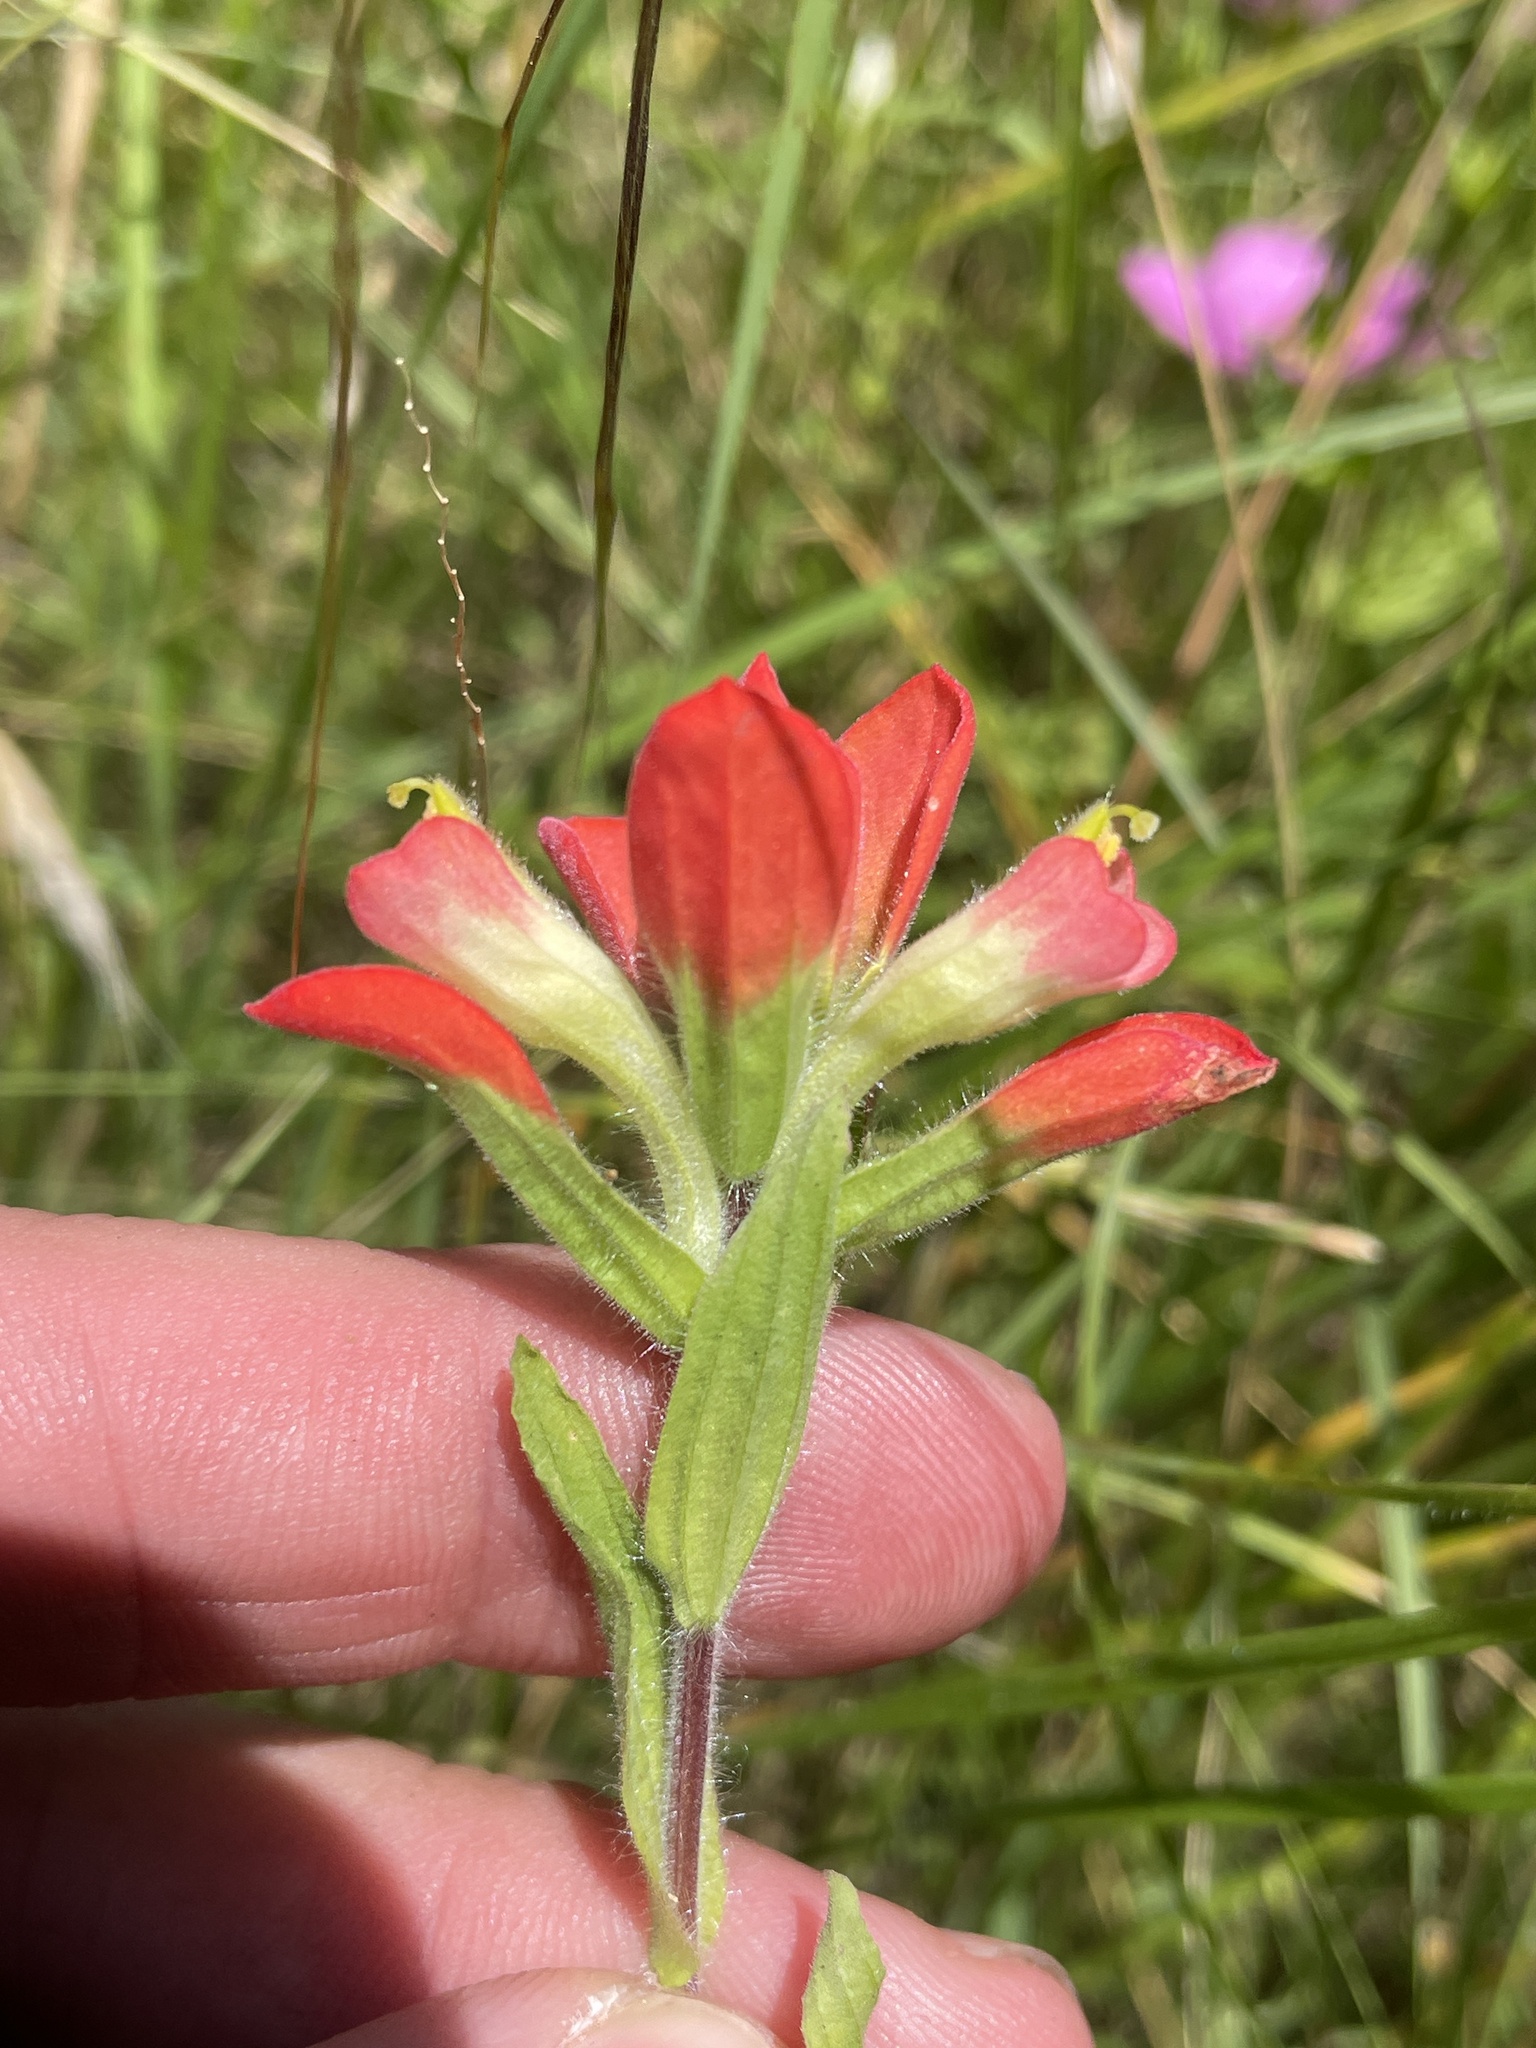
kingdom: Plantae
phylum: Tracheophyta
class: Magnoliopsida
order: Lamiales
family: Orobanchaceae
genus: Castilleja
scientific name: Castilleja indivisa
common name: Texas paintbrush
